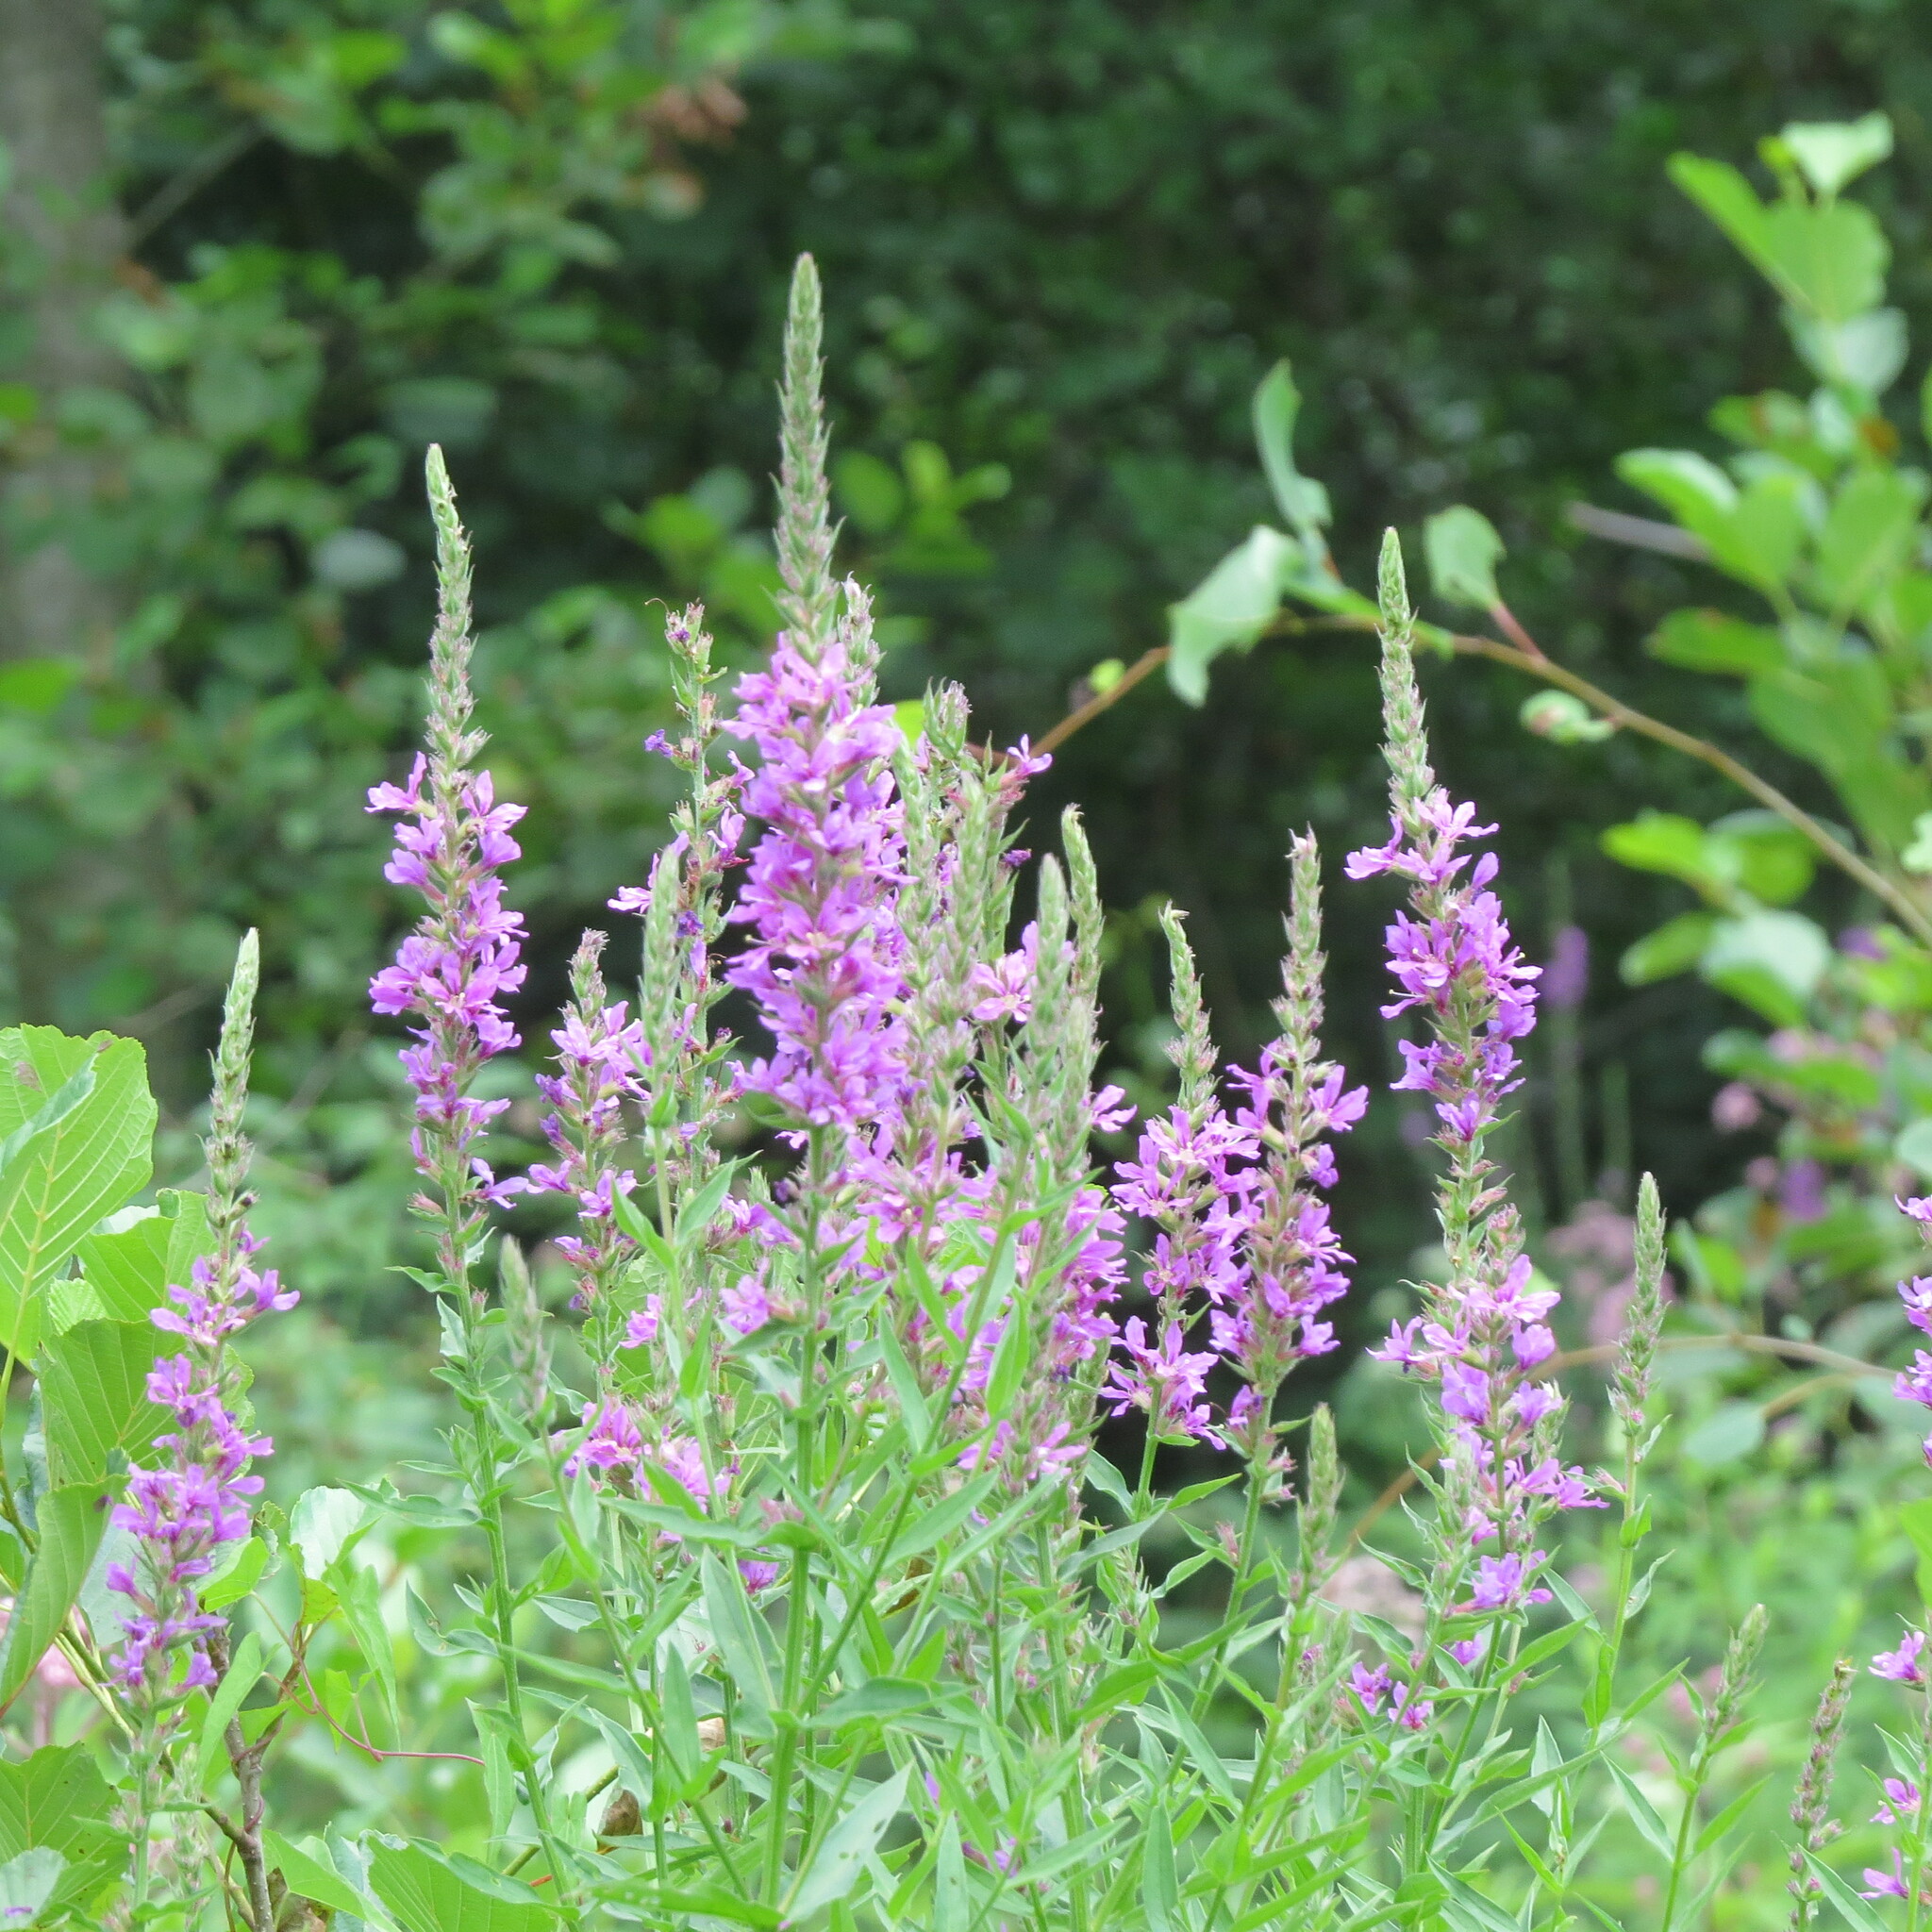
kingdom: Plantae
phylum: Tracheophyta
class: Magnoliopsida
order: Myrtales
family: Lythraceae
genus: Lythrum
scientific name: Lythrum salicaria
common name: Purple loosestrife
